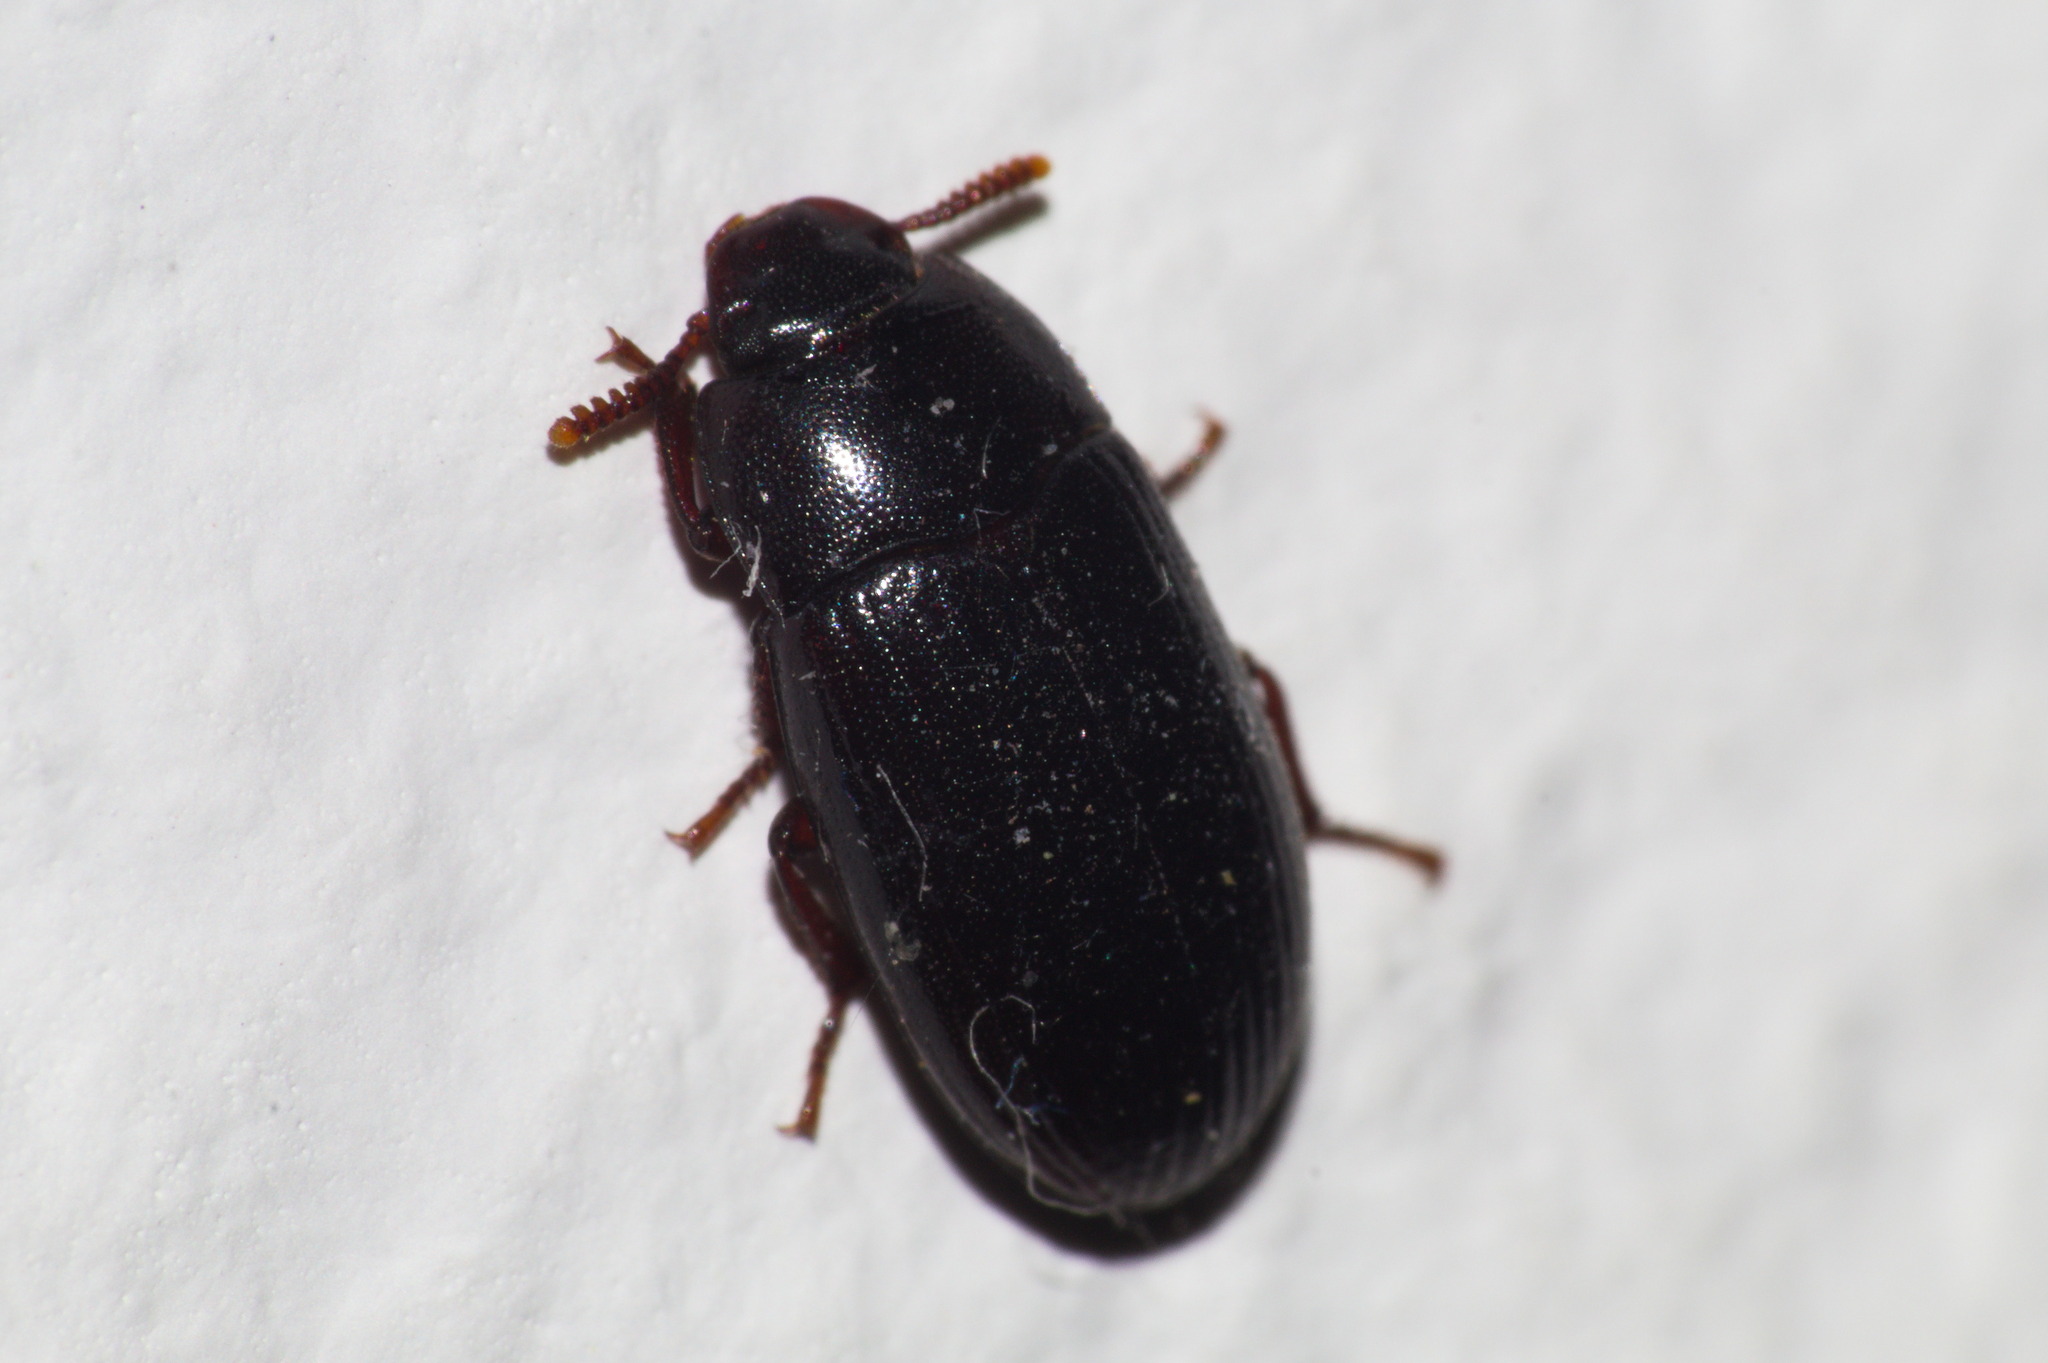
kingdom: Animalia
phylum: Arthropoda
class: Insecta
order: Coleoptera
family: Tenebrionidae
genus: Alphitobius
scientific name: Alphitobius diaperinus
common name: Lesser mealworm
